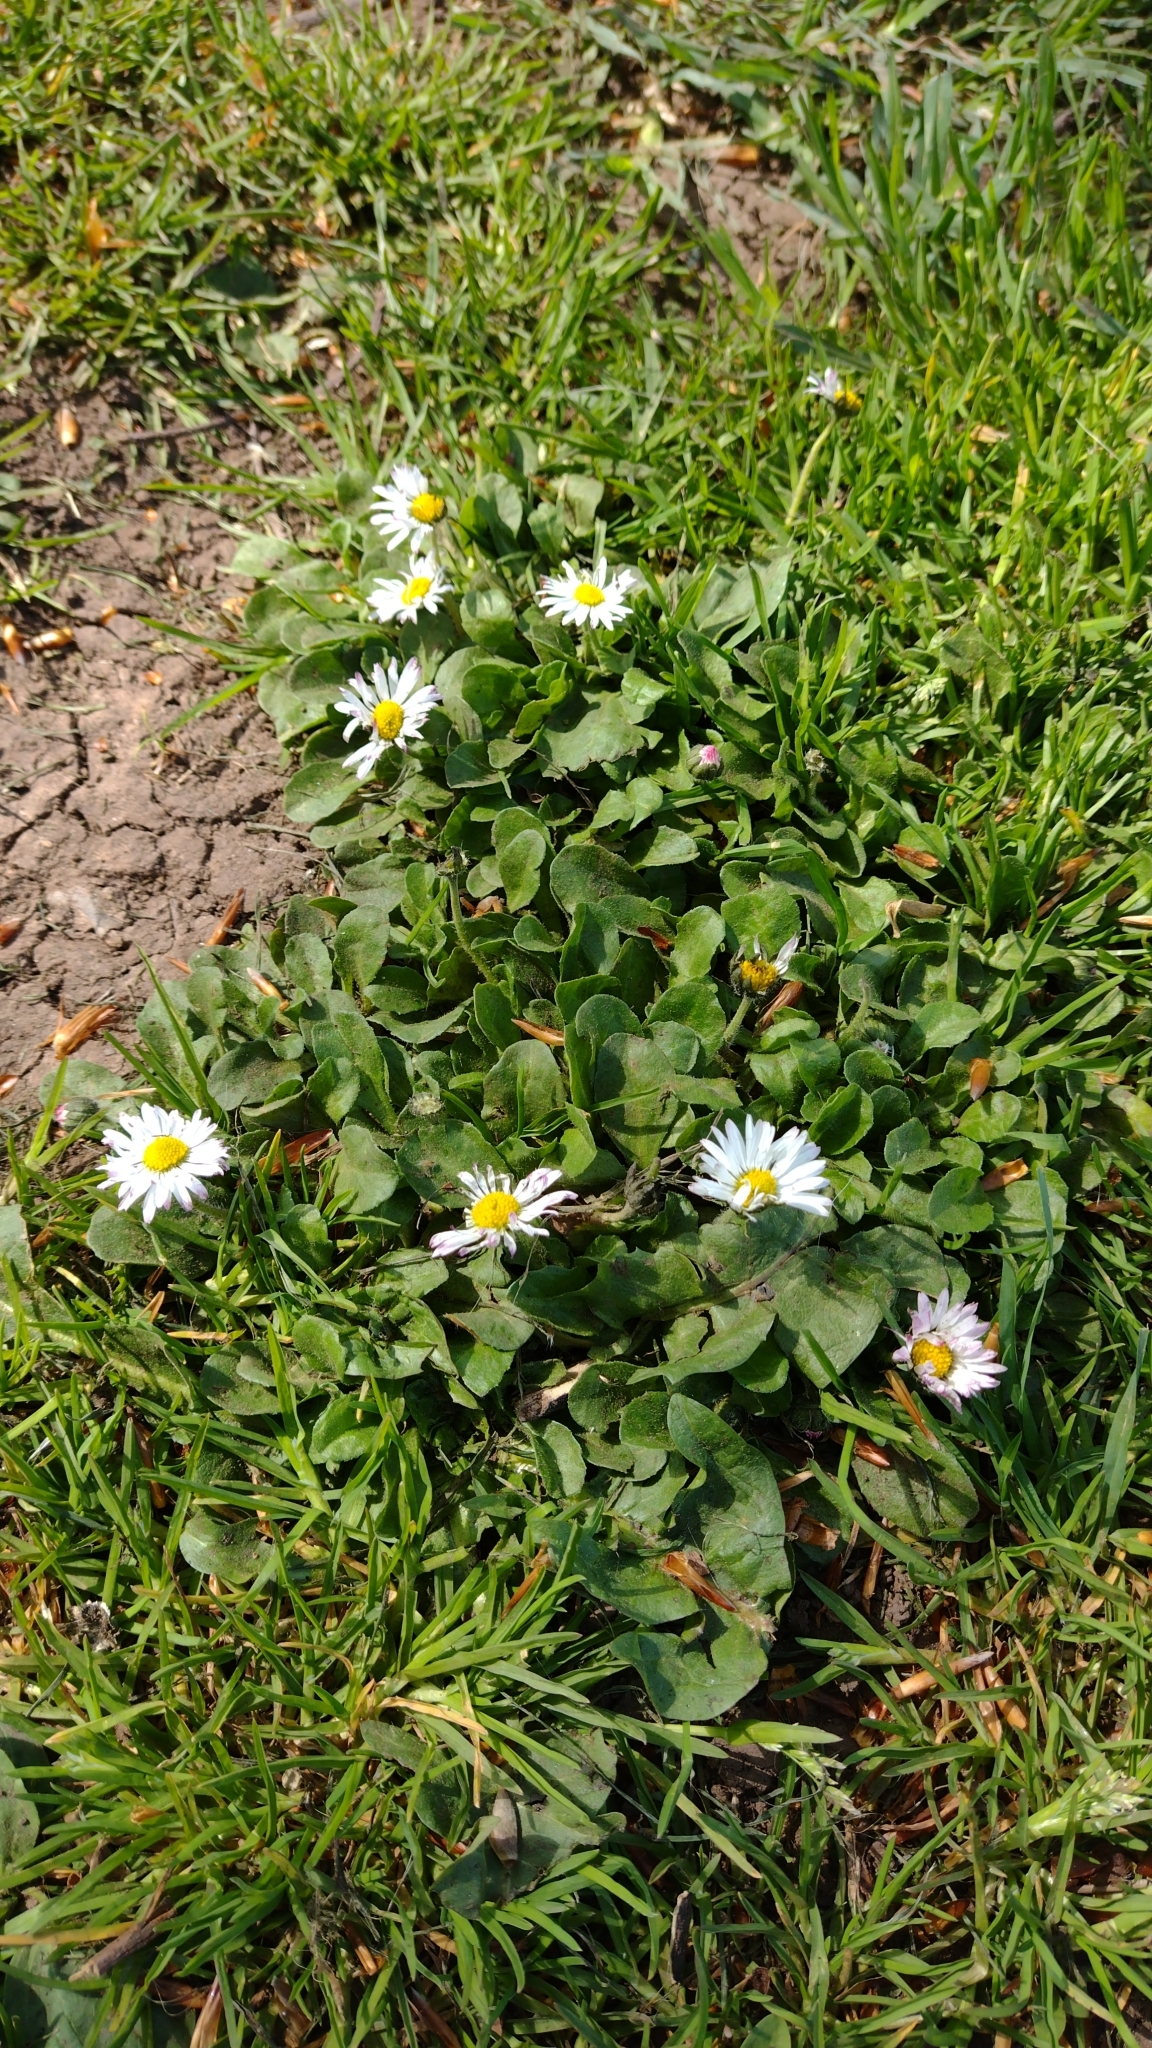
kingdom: Plantae
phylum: Tracheophyta
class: Magnoliopsida
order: Asterales
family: Asteraceae
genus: Bellis
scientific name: Bellis perennis
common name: Lawndaisy
